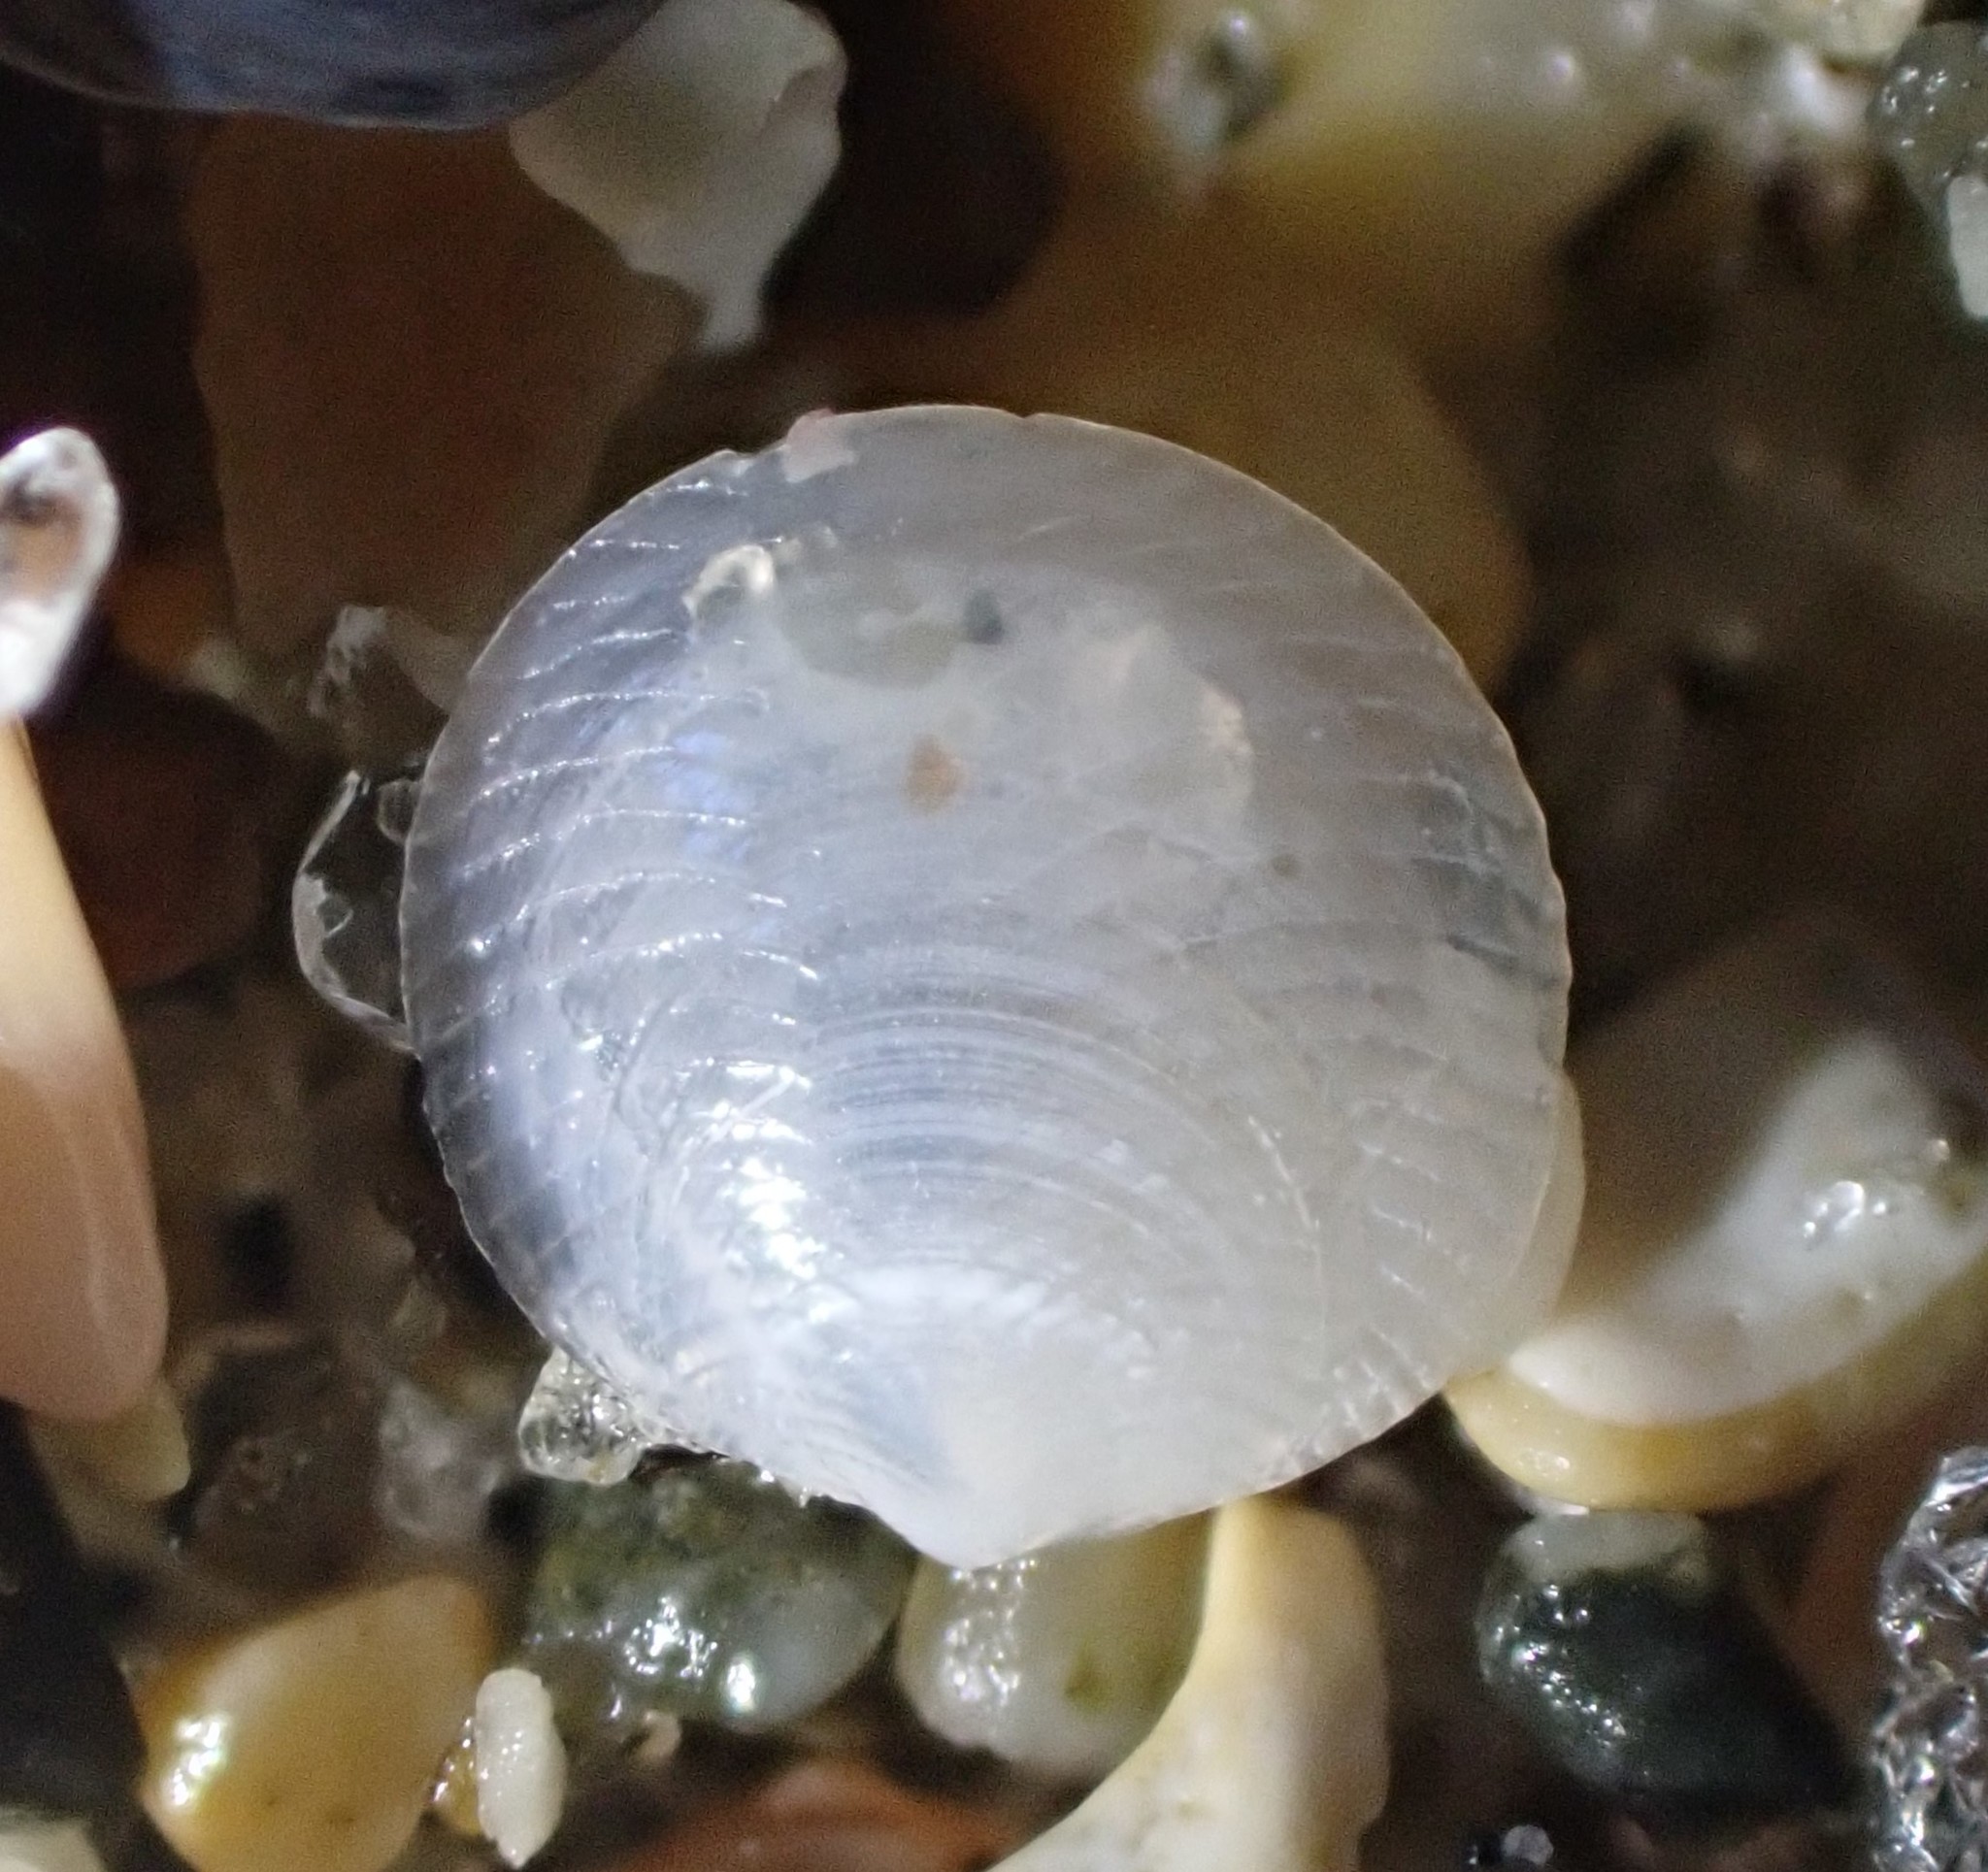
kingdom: Animalia
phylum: Mollusca
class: Bivalvia
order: Galeommatida
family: Lasaeidae
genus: Myllita
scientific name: Myllita vivens
